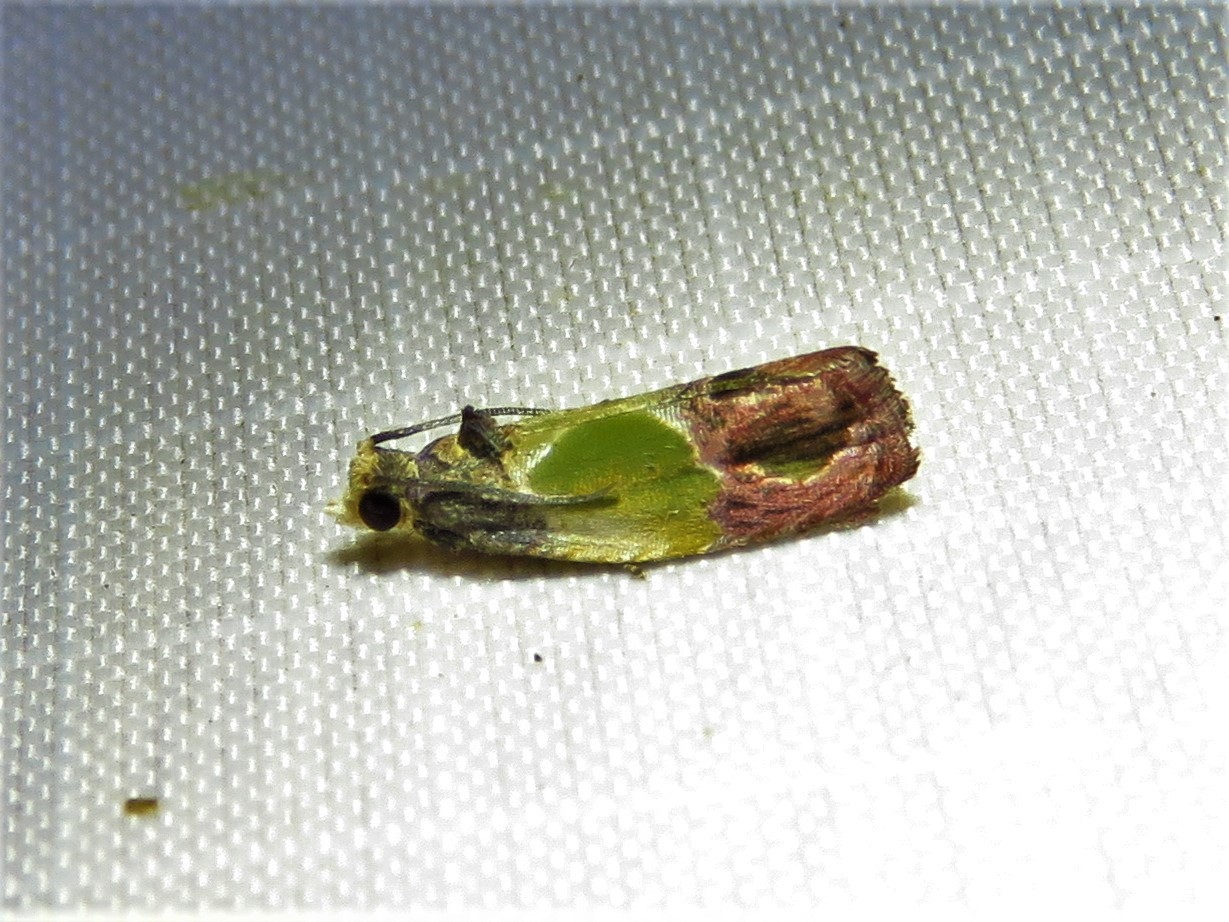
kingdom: Animalia
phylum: Arthropoda
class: Insecta
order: Lepidoptera
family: Tortricidae
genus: Eumarozia
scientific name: Eumarozia malachitana
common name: Sculptured moth
